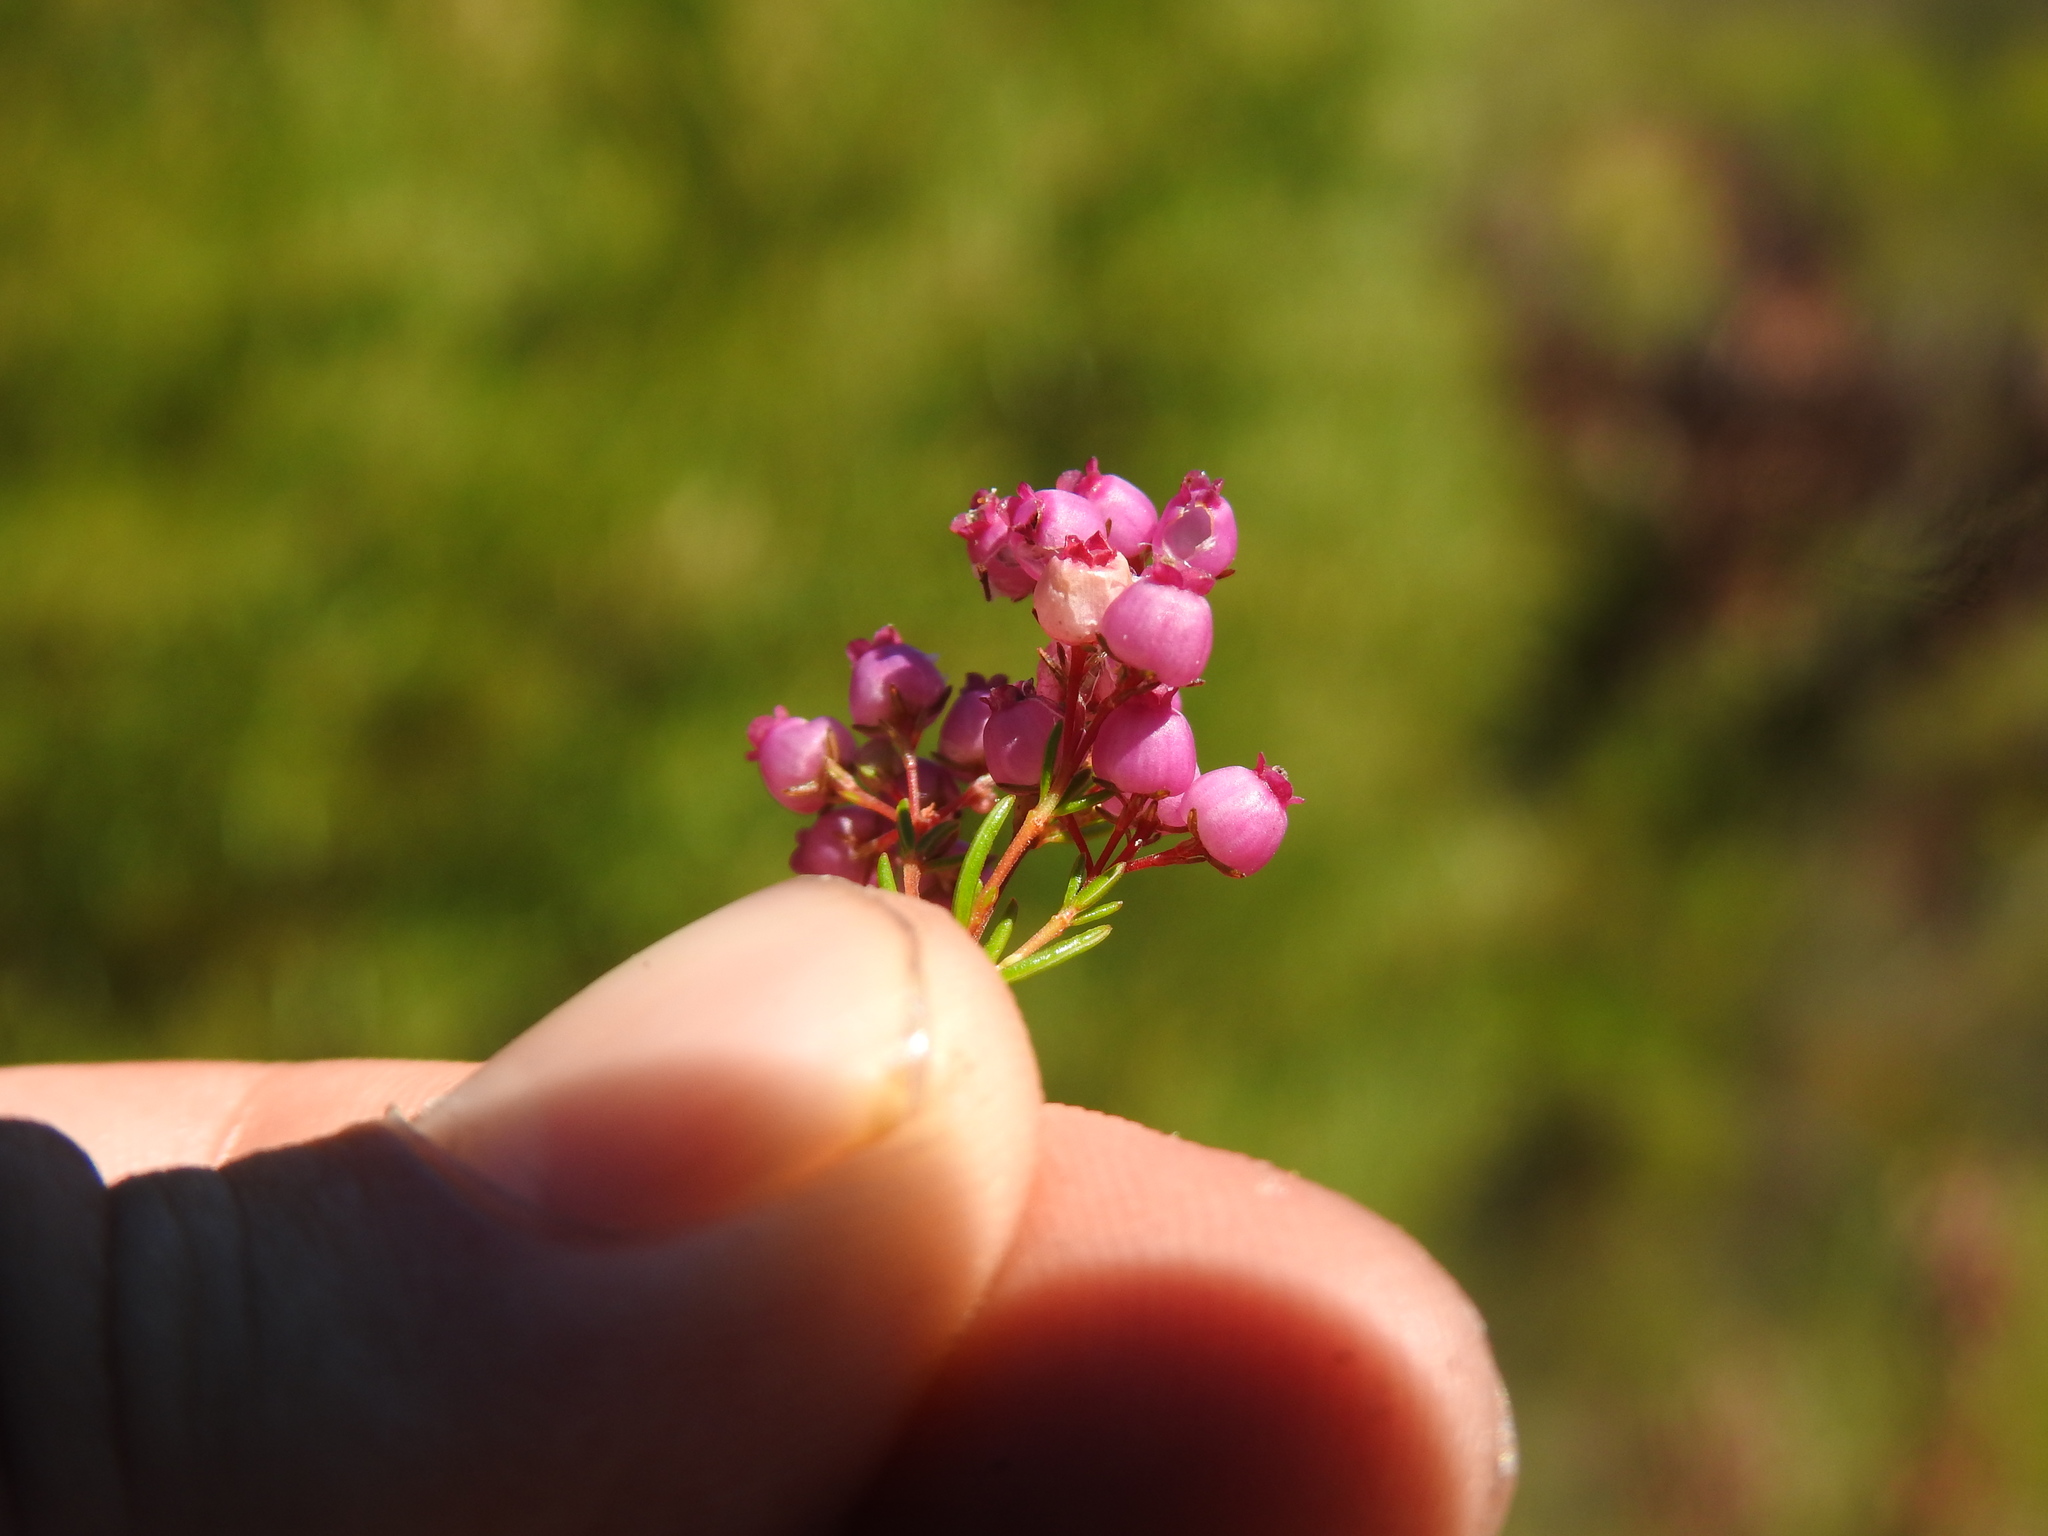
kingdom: Plantae
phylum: Tracheophyta
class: Magnoliopsida
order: Ericales
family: Ericaceae
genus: Erica
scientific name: Erica multumbellifera
